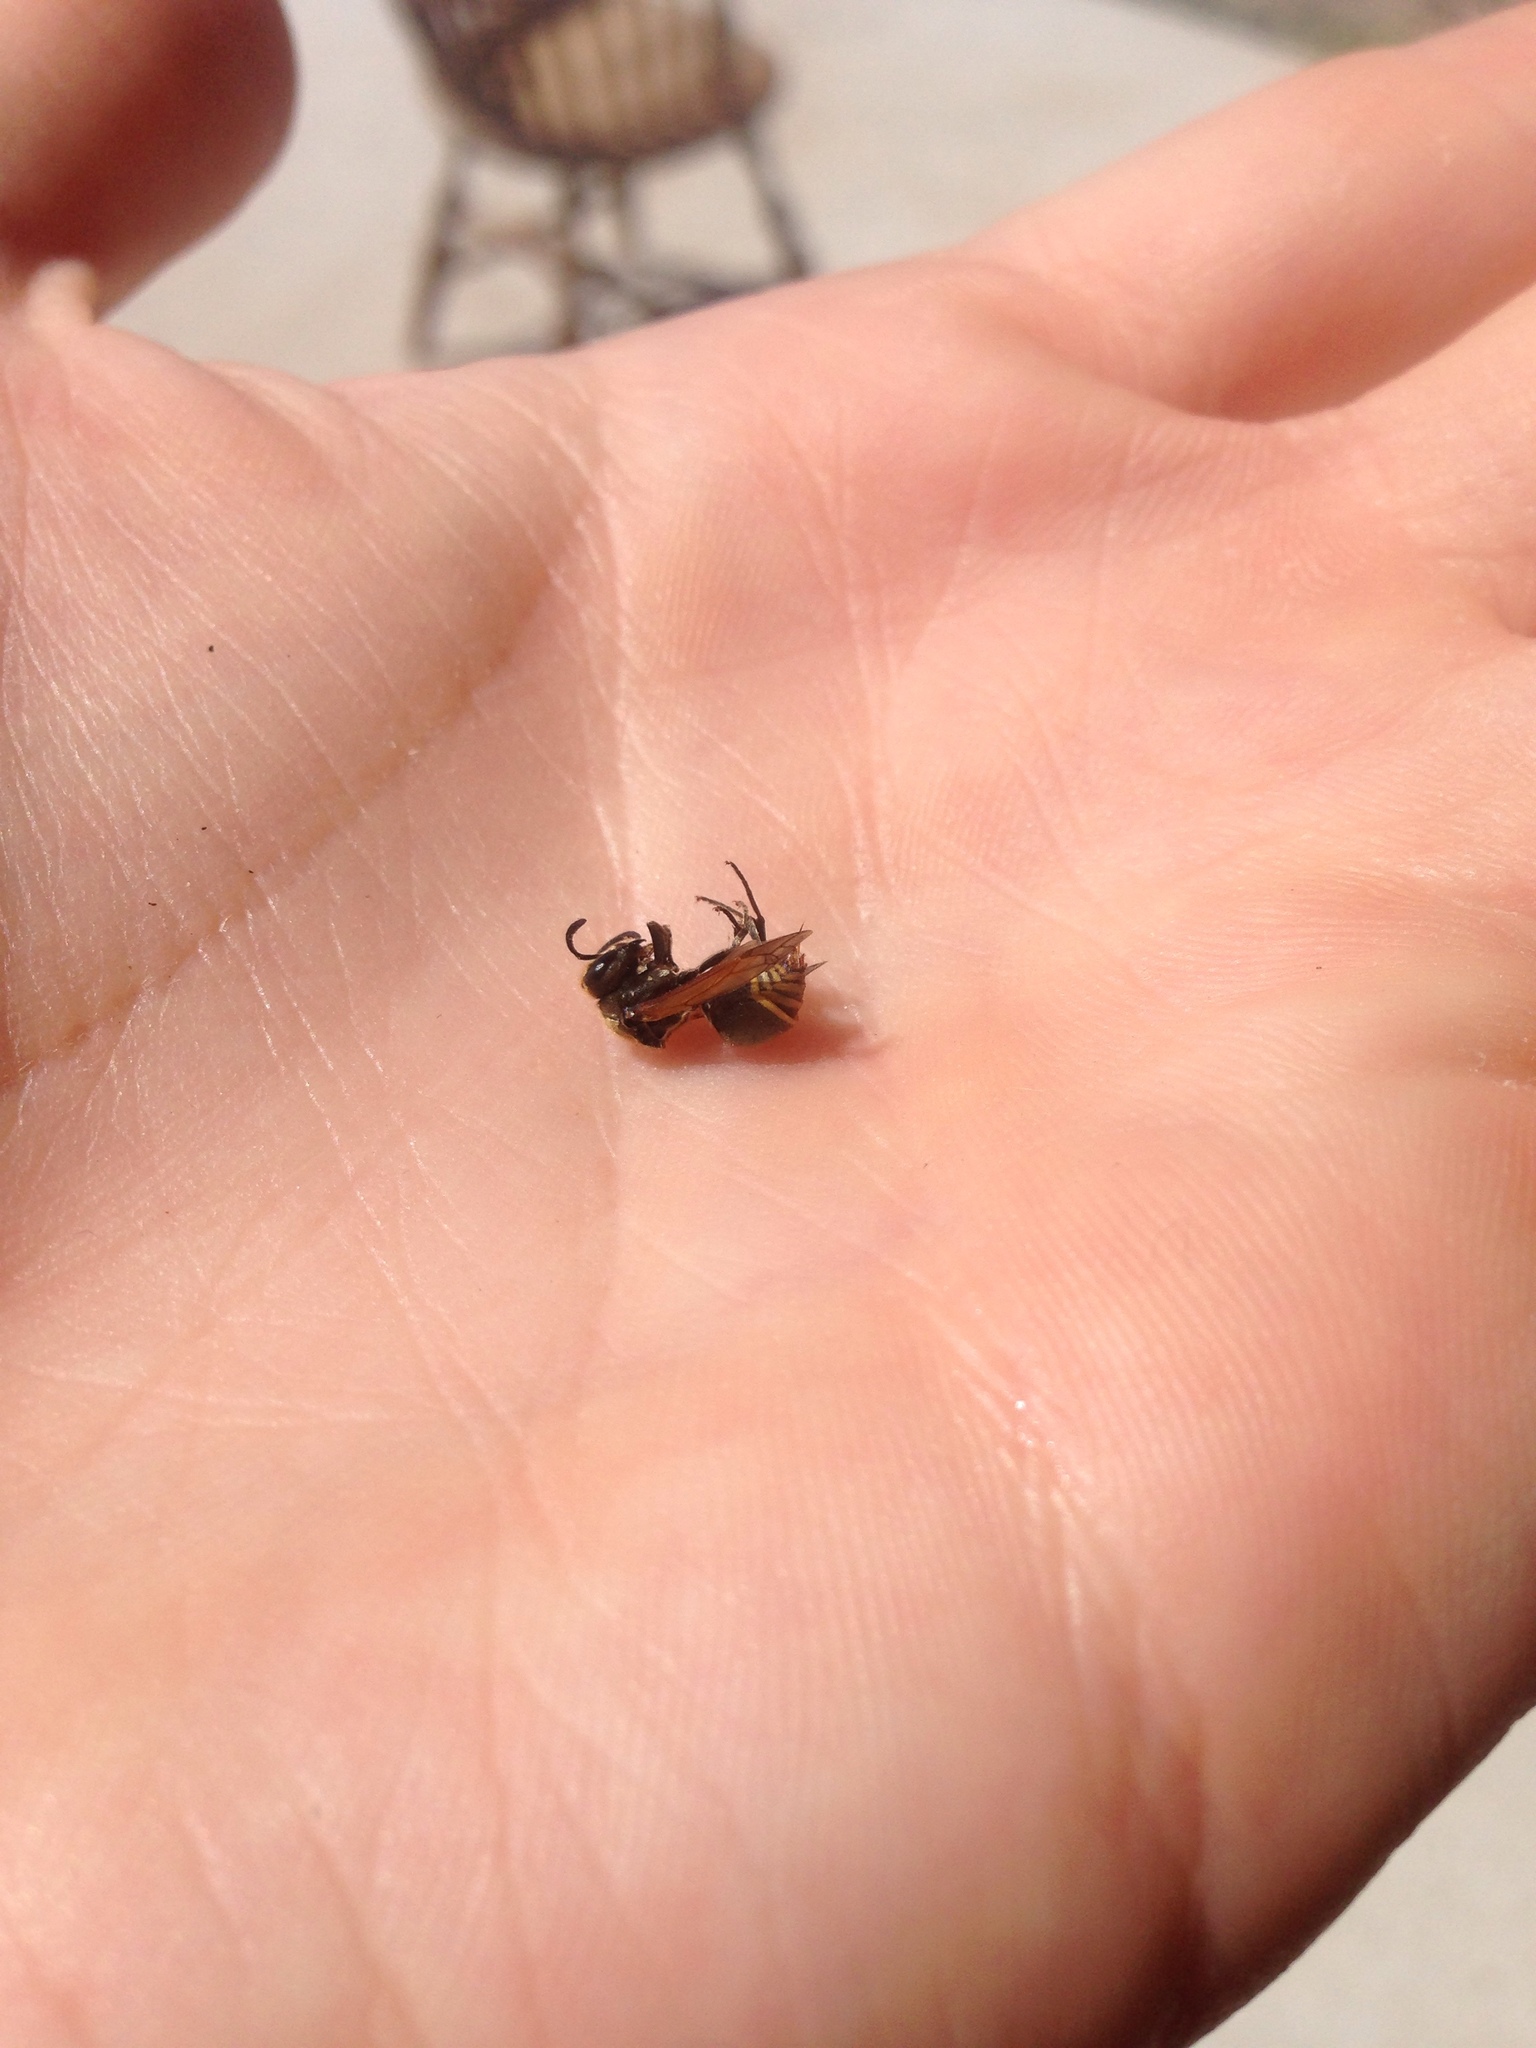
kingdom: Animalia
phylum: Arthropoda
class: Insecta
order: Hymenoptera
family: Vespidae
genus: Brachygastra
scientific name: Brachygastra mellifica
